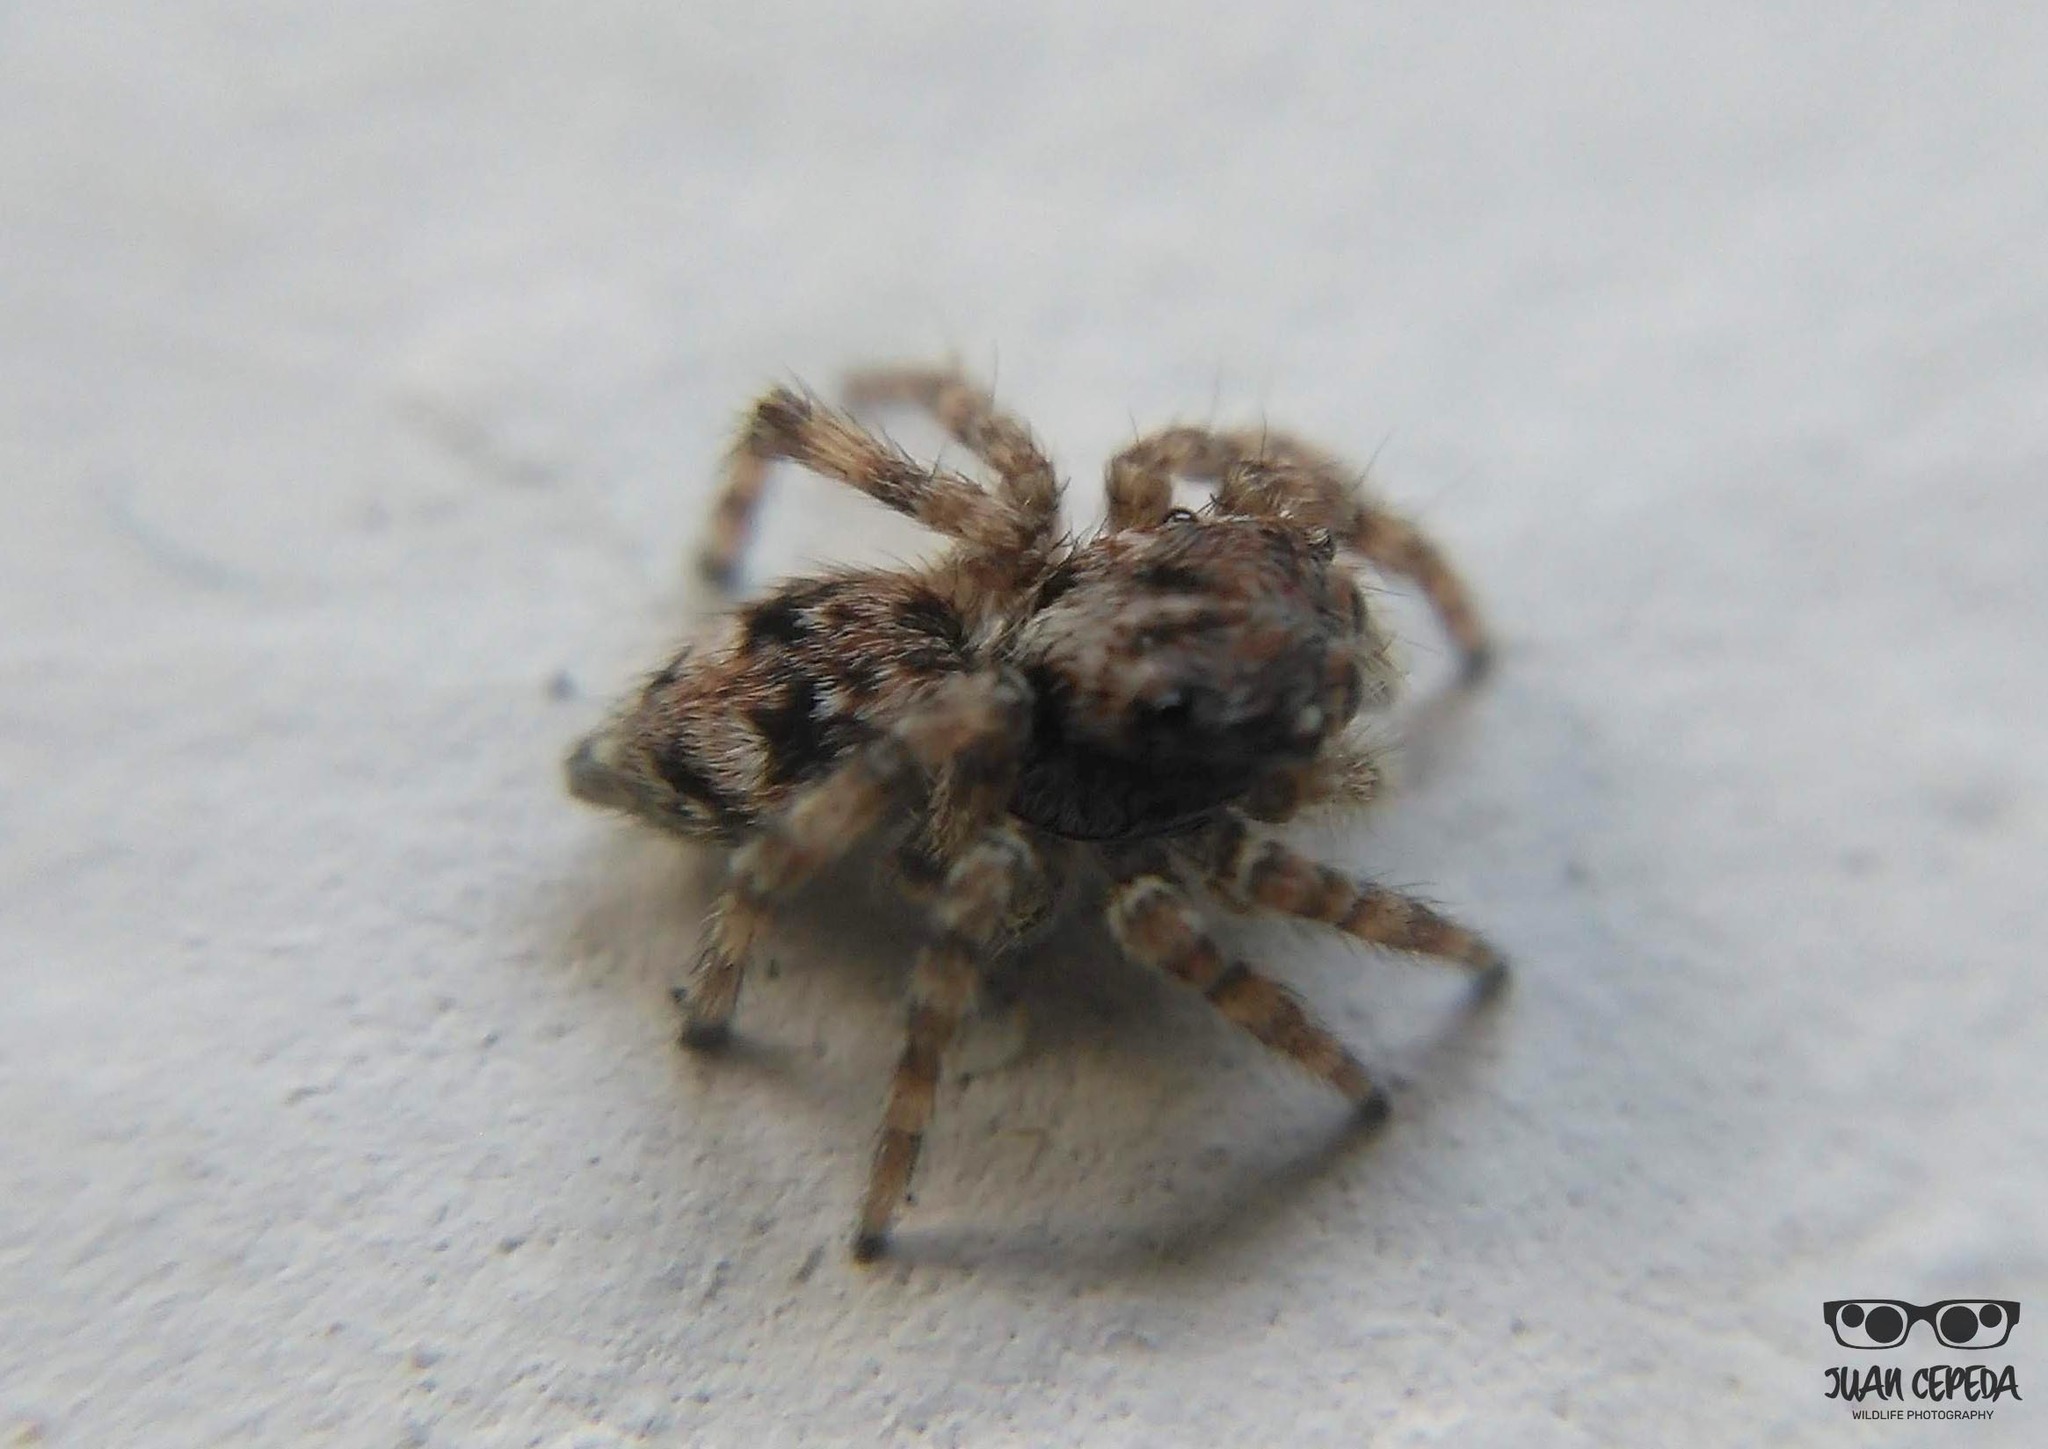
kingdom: Animalia
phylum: Arthropoda
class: Arachnida
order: Araneae
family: Salticidae
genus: Attulus
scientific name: Attulus fasciger
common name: Asiatic wall jumping spider
